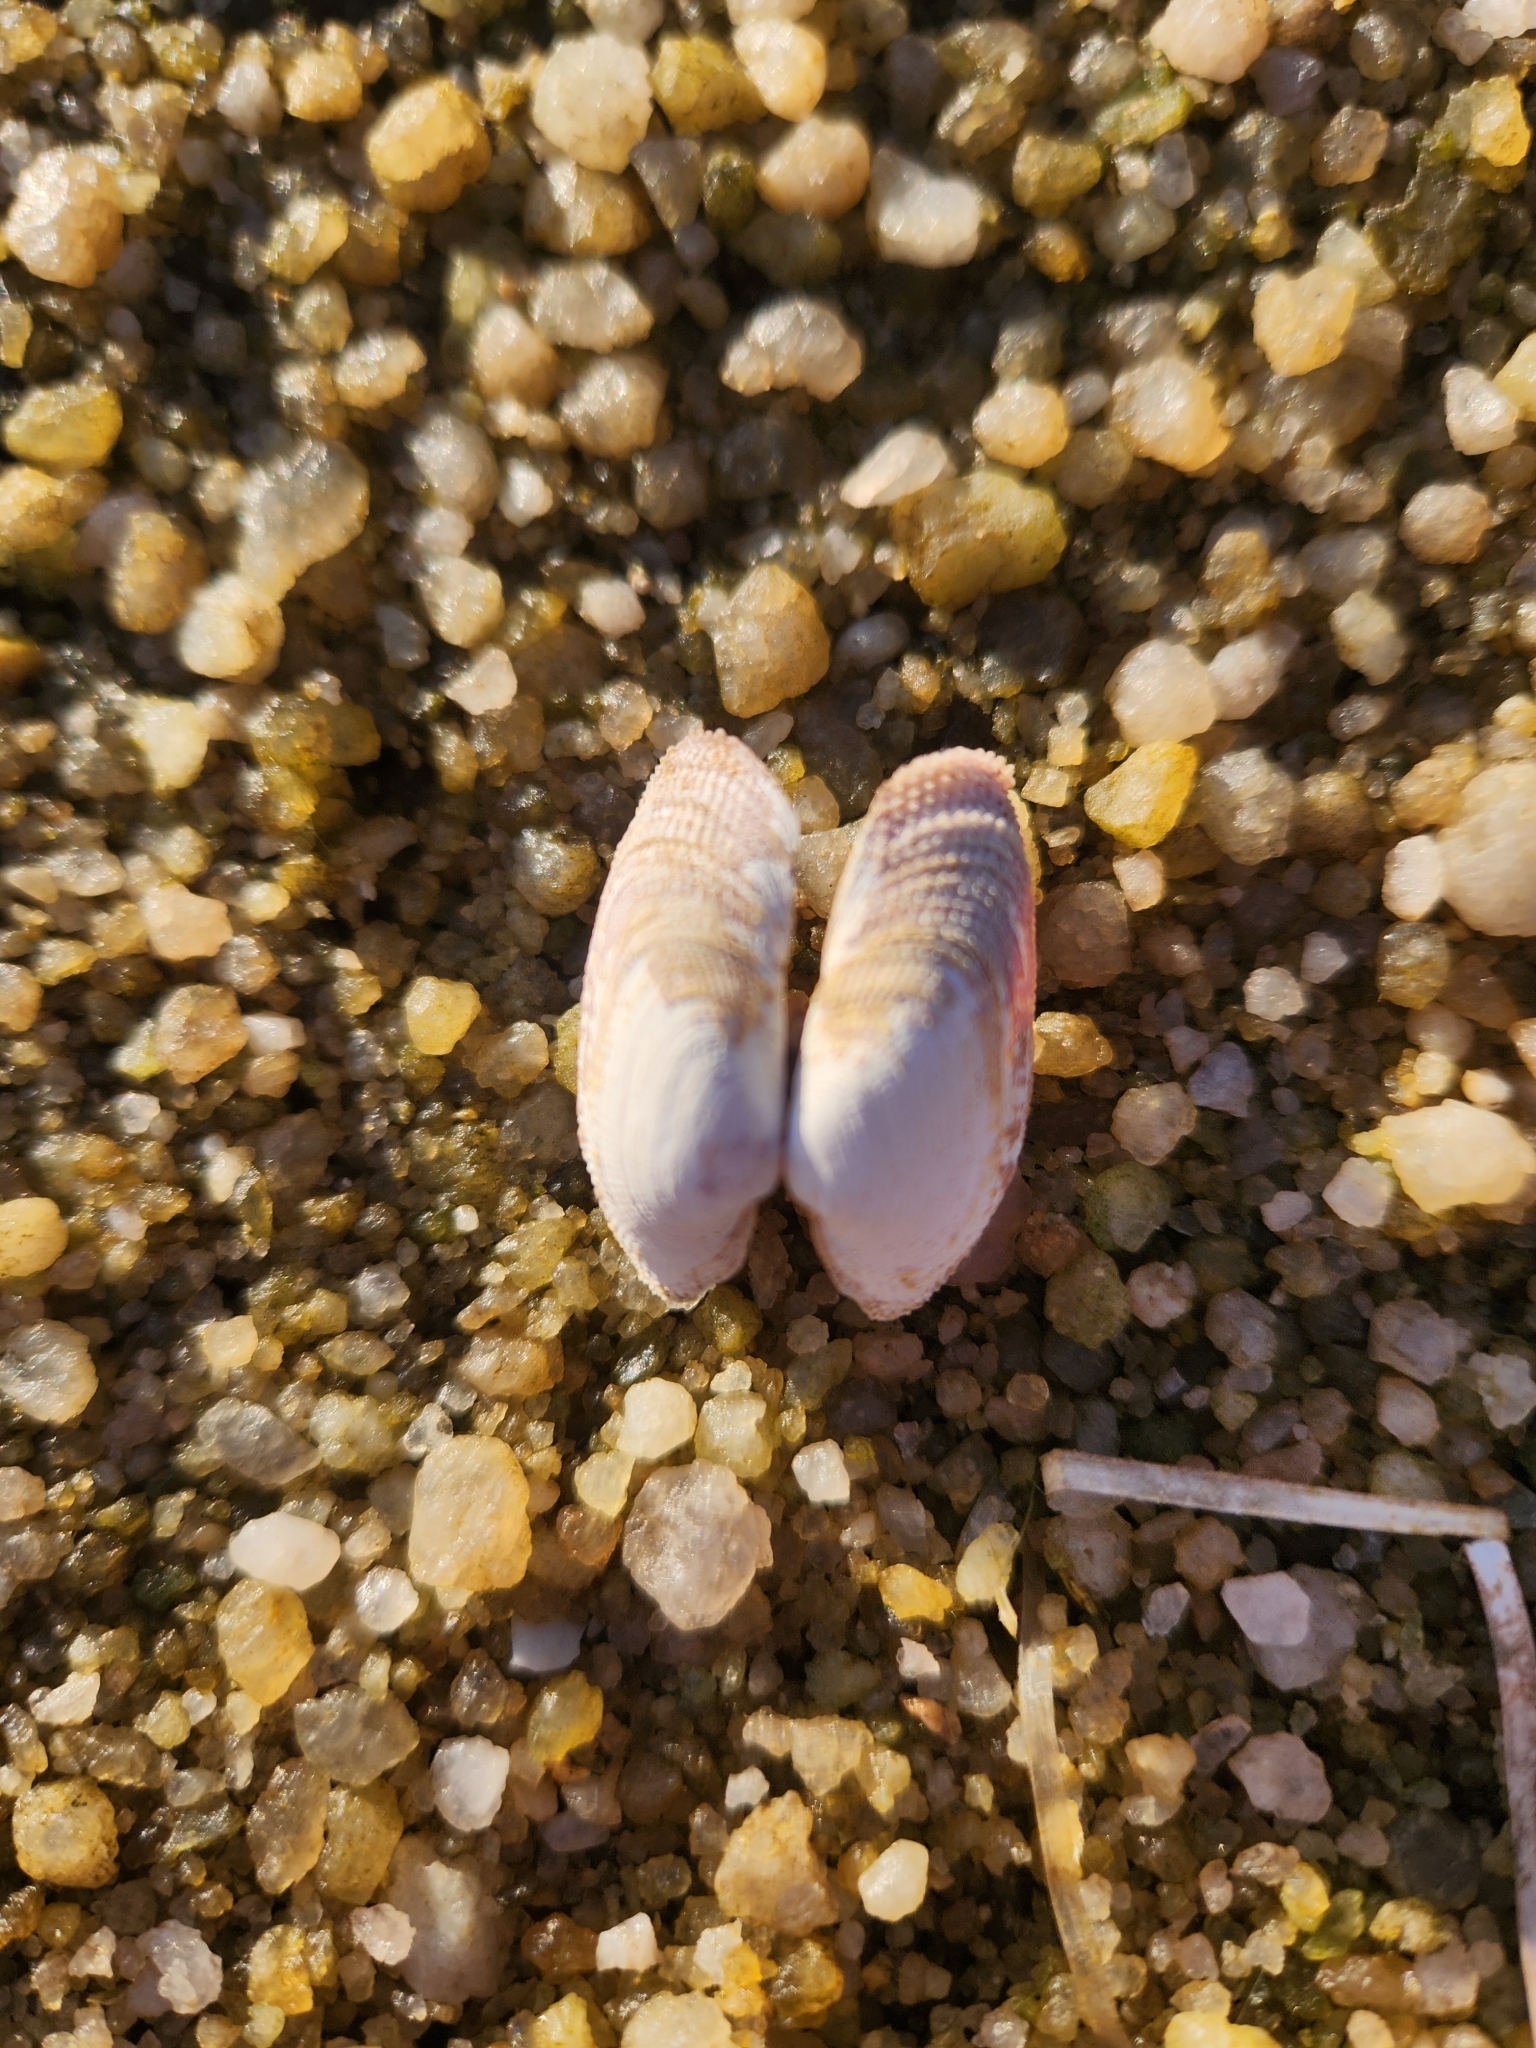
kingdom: Animalia
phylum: Mollusca
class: Bivalvia
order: Venerida
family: Veneridae
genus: Irus
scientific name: Irus crenatus
